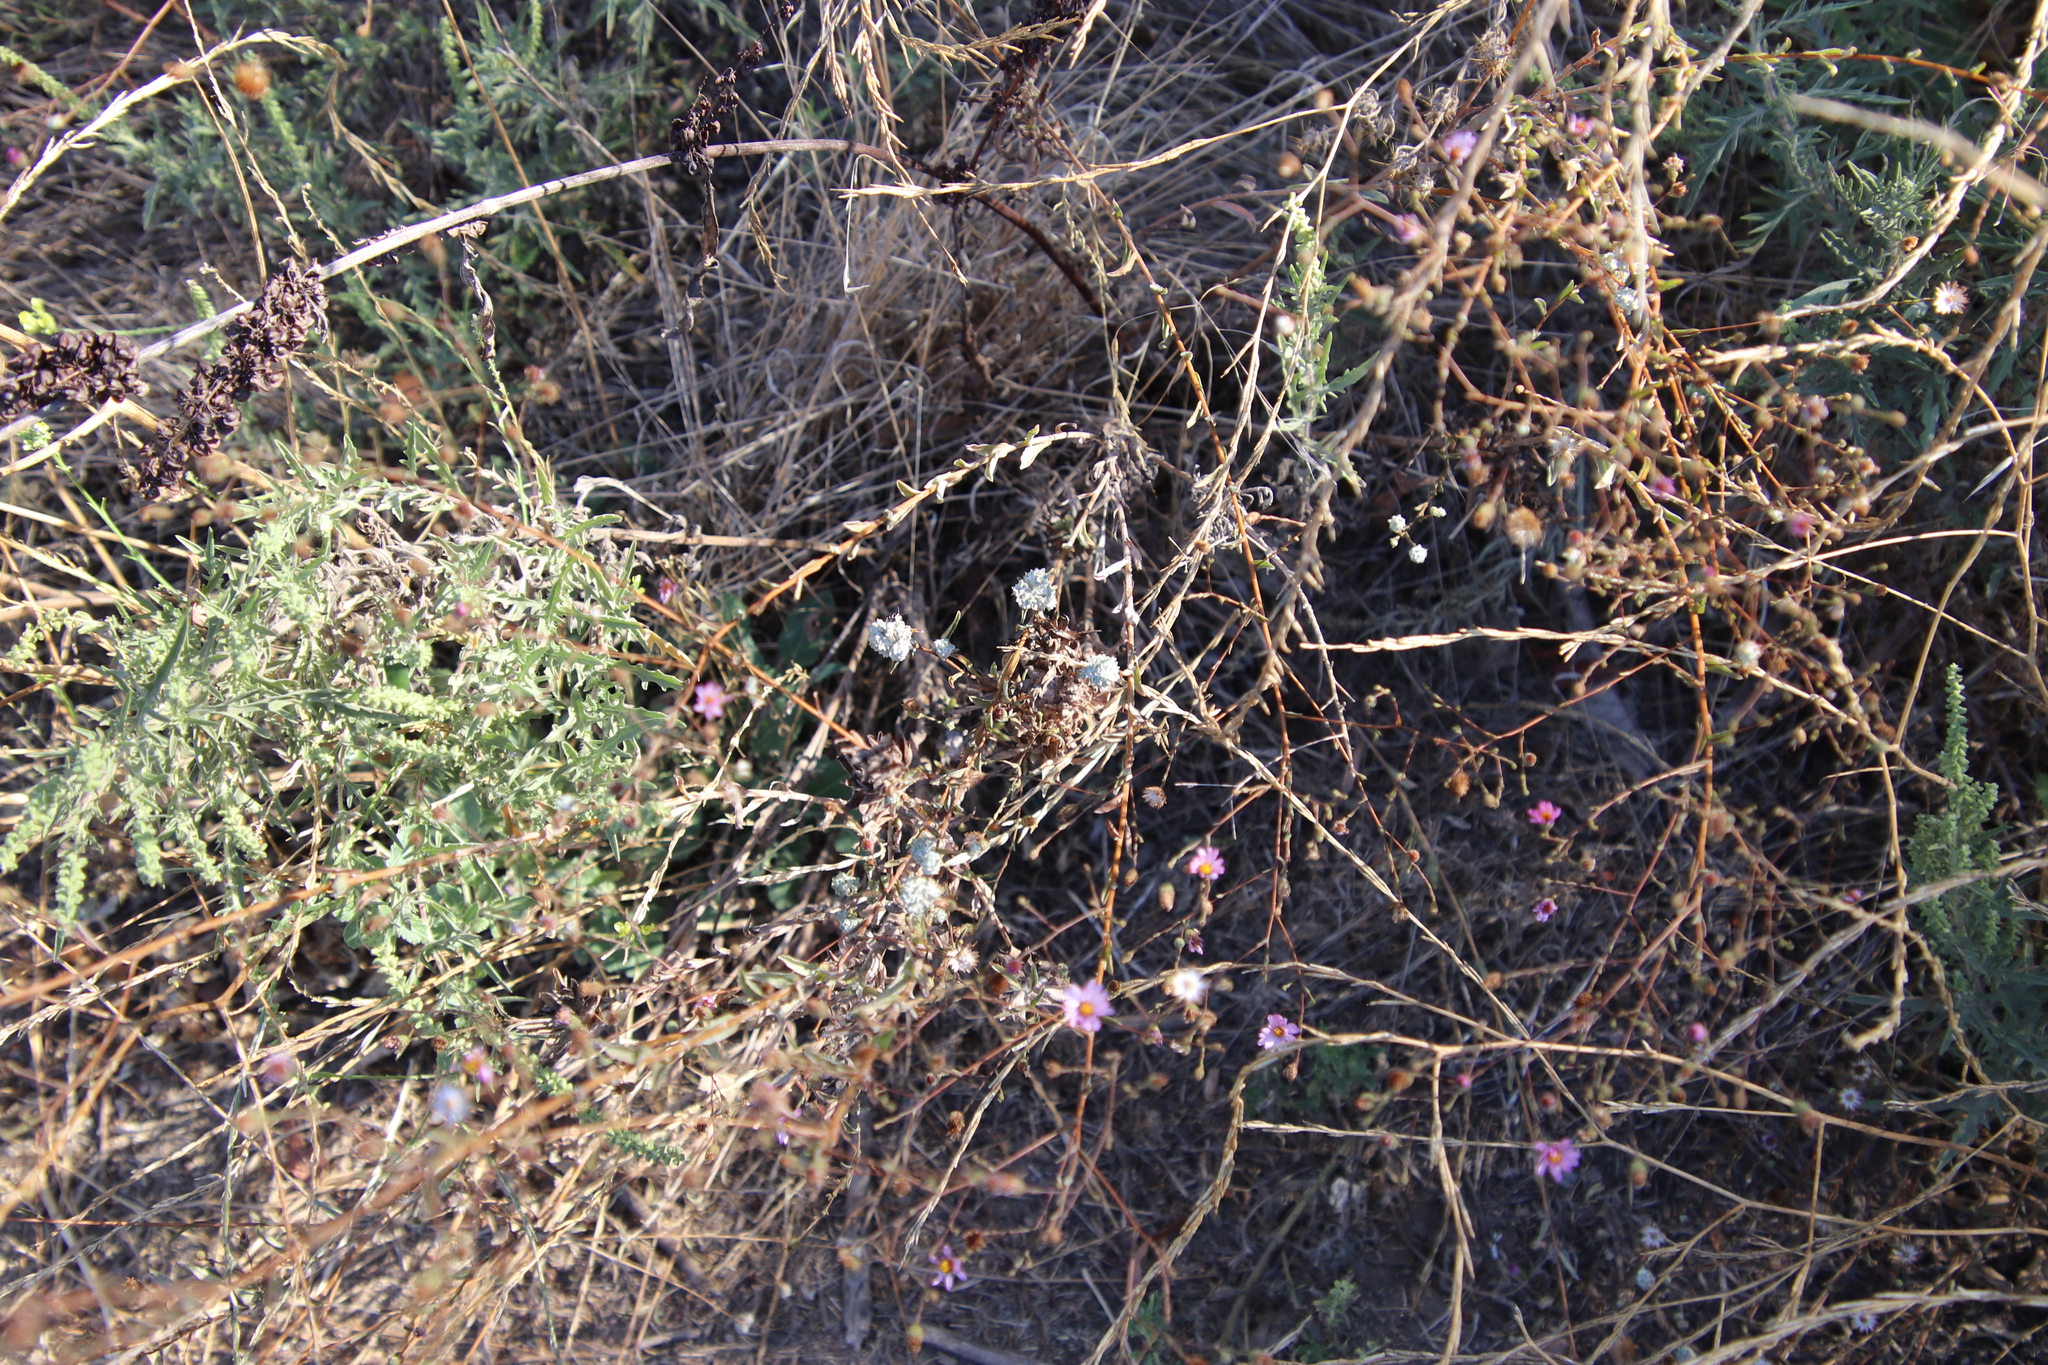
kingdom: Plantae
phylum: Tracheophyta
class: Magnoliopsida
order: Asterales
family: Asteraceae
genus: Corethrogyne
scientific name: Corethrogyne filaginifolia
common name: Sand-aster
